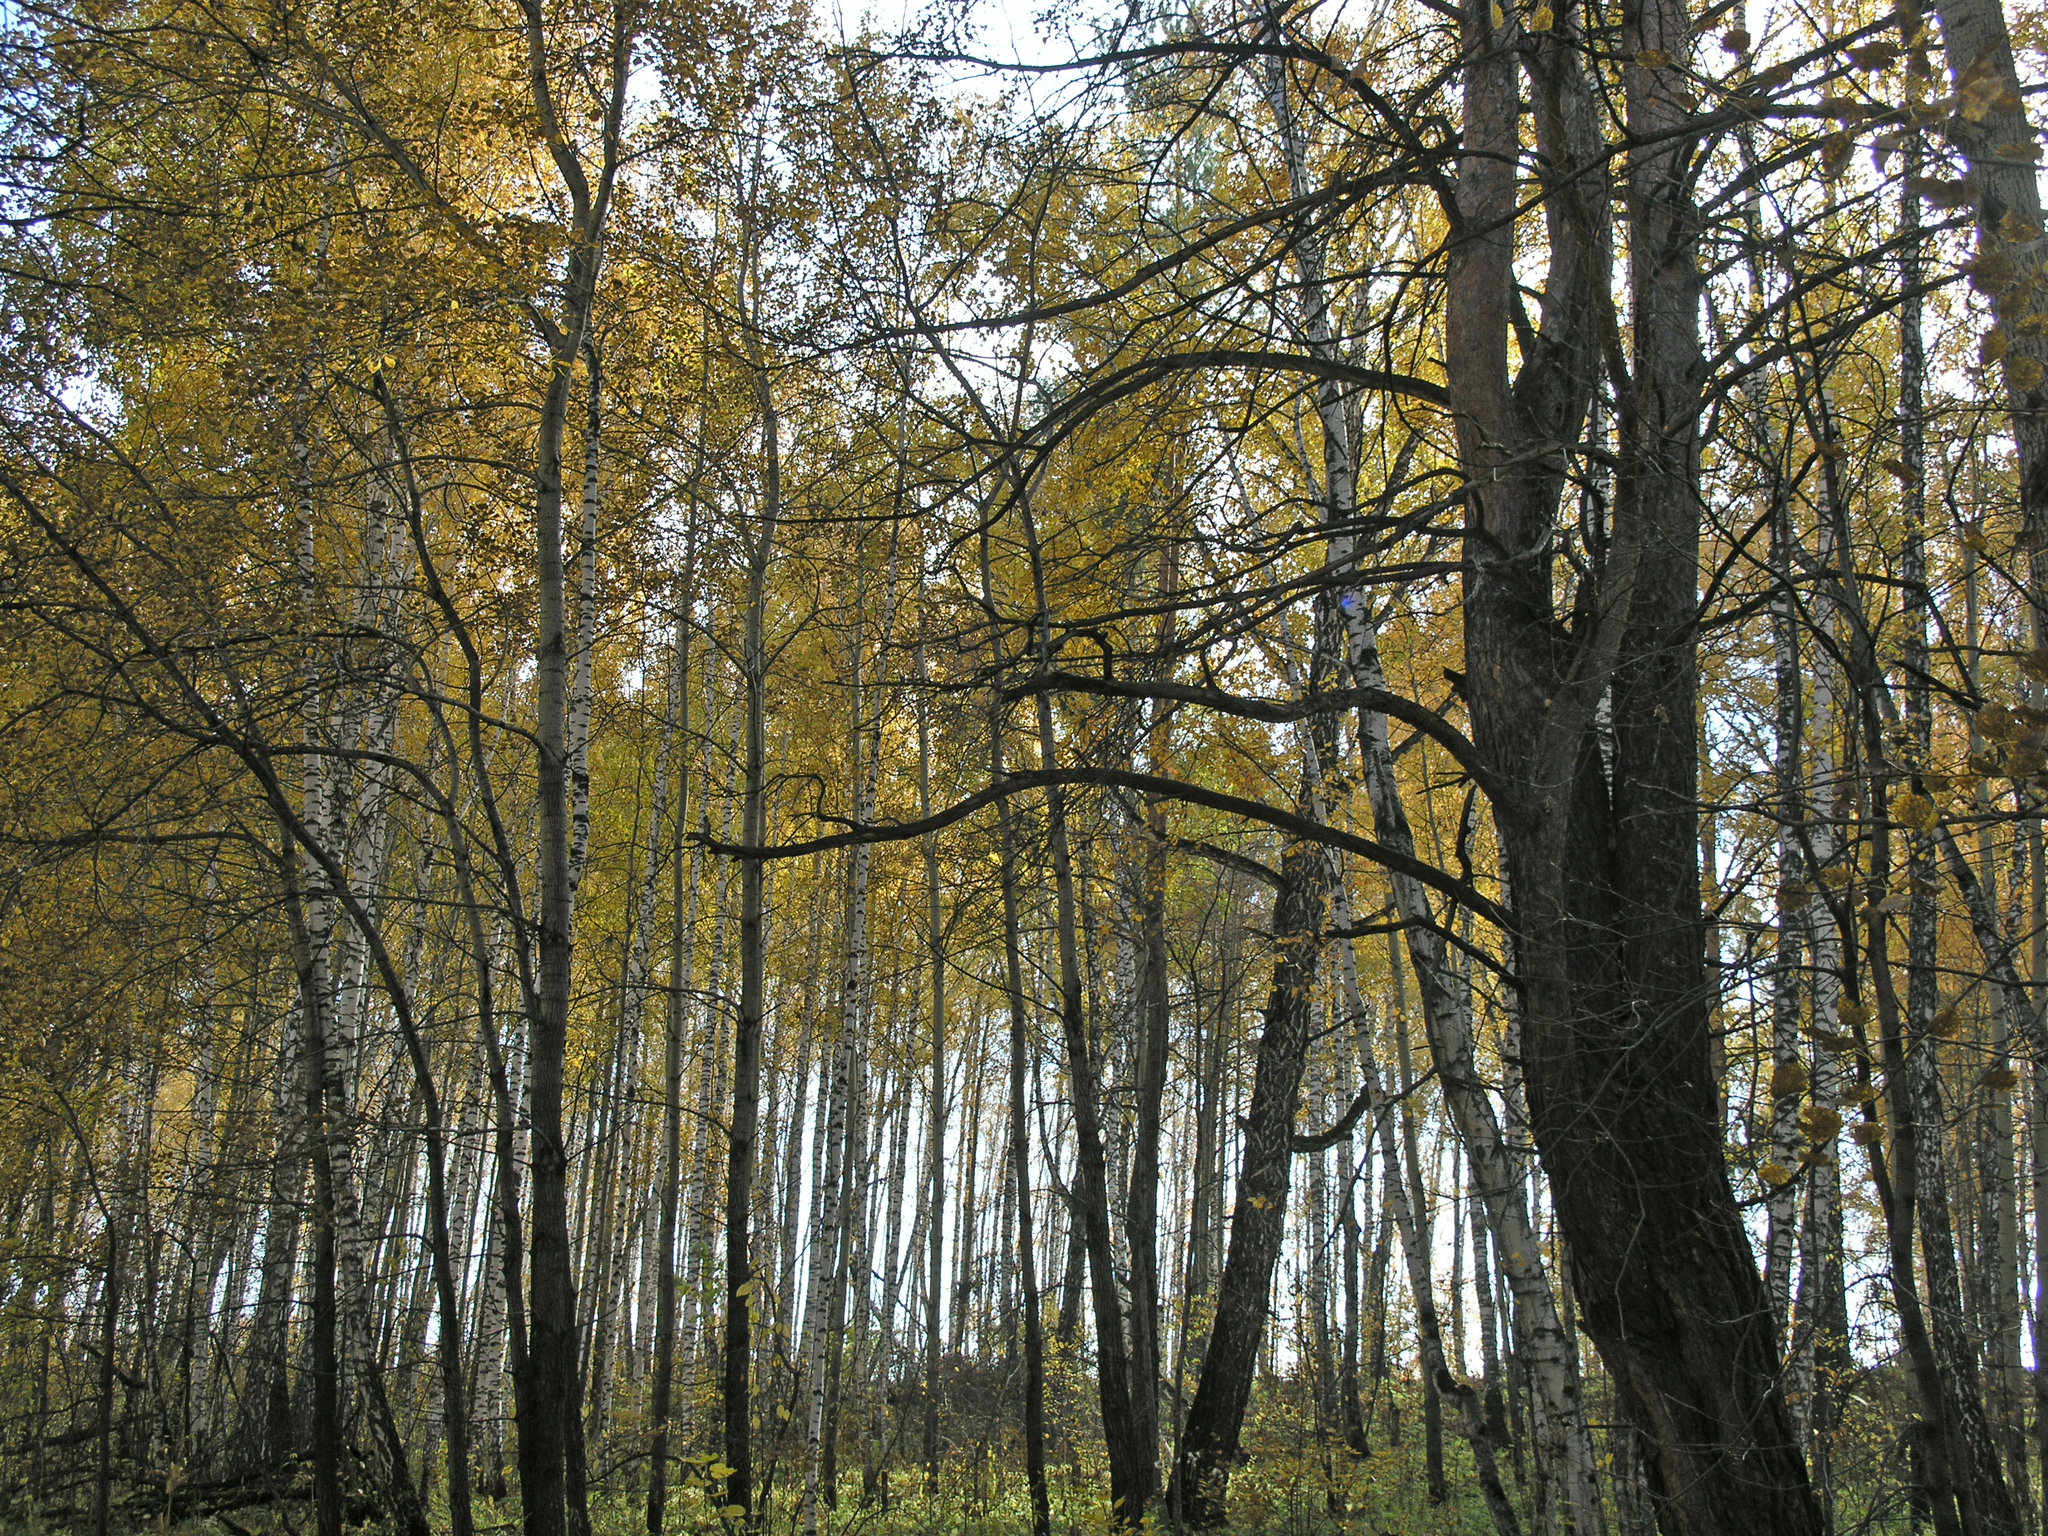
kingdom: Plantae
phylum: Tracheophyta
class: Magnoliopsida
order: Fagales
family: Betulaceae
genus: Betula
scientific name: Betula pendula
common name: Silver birch
